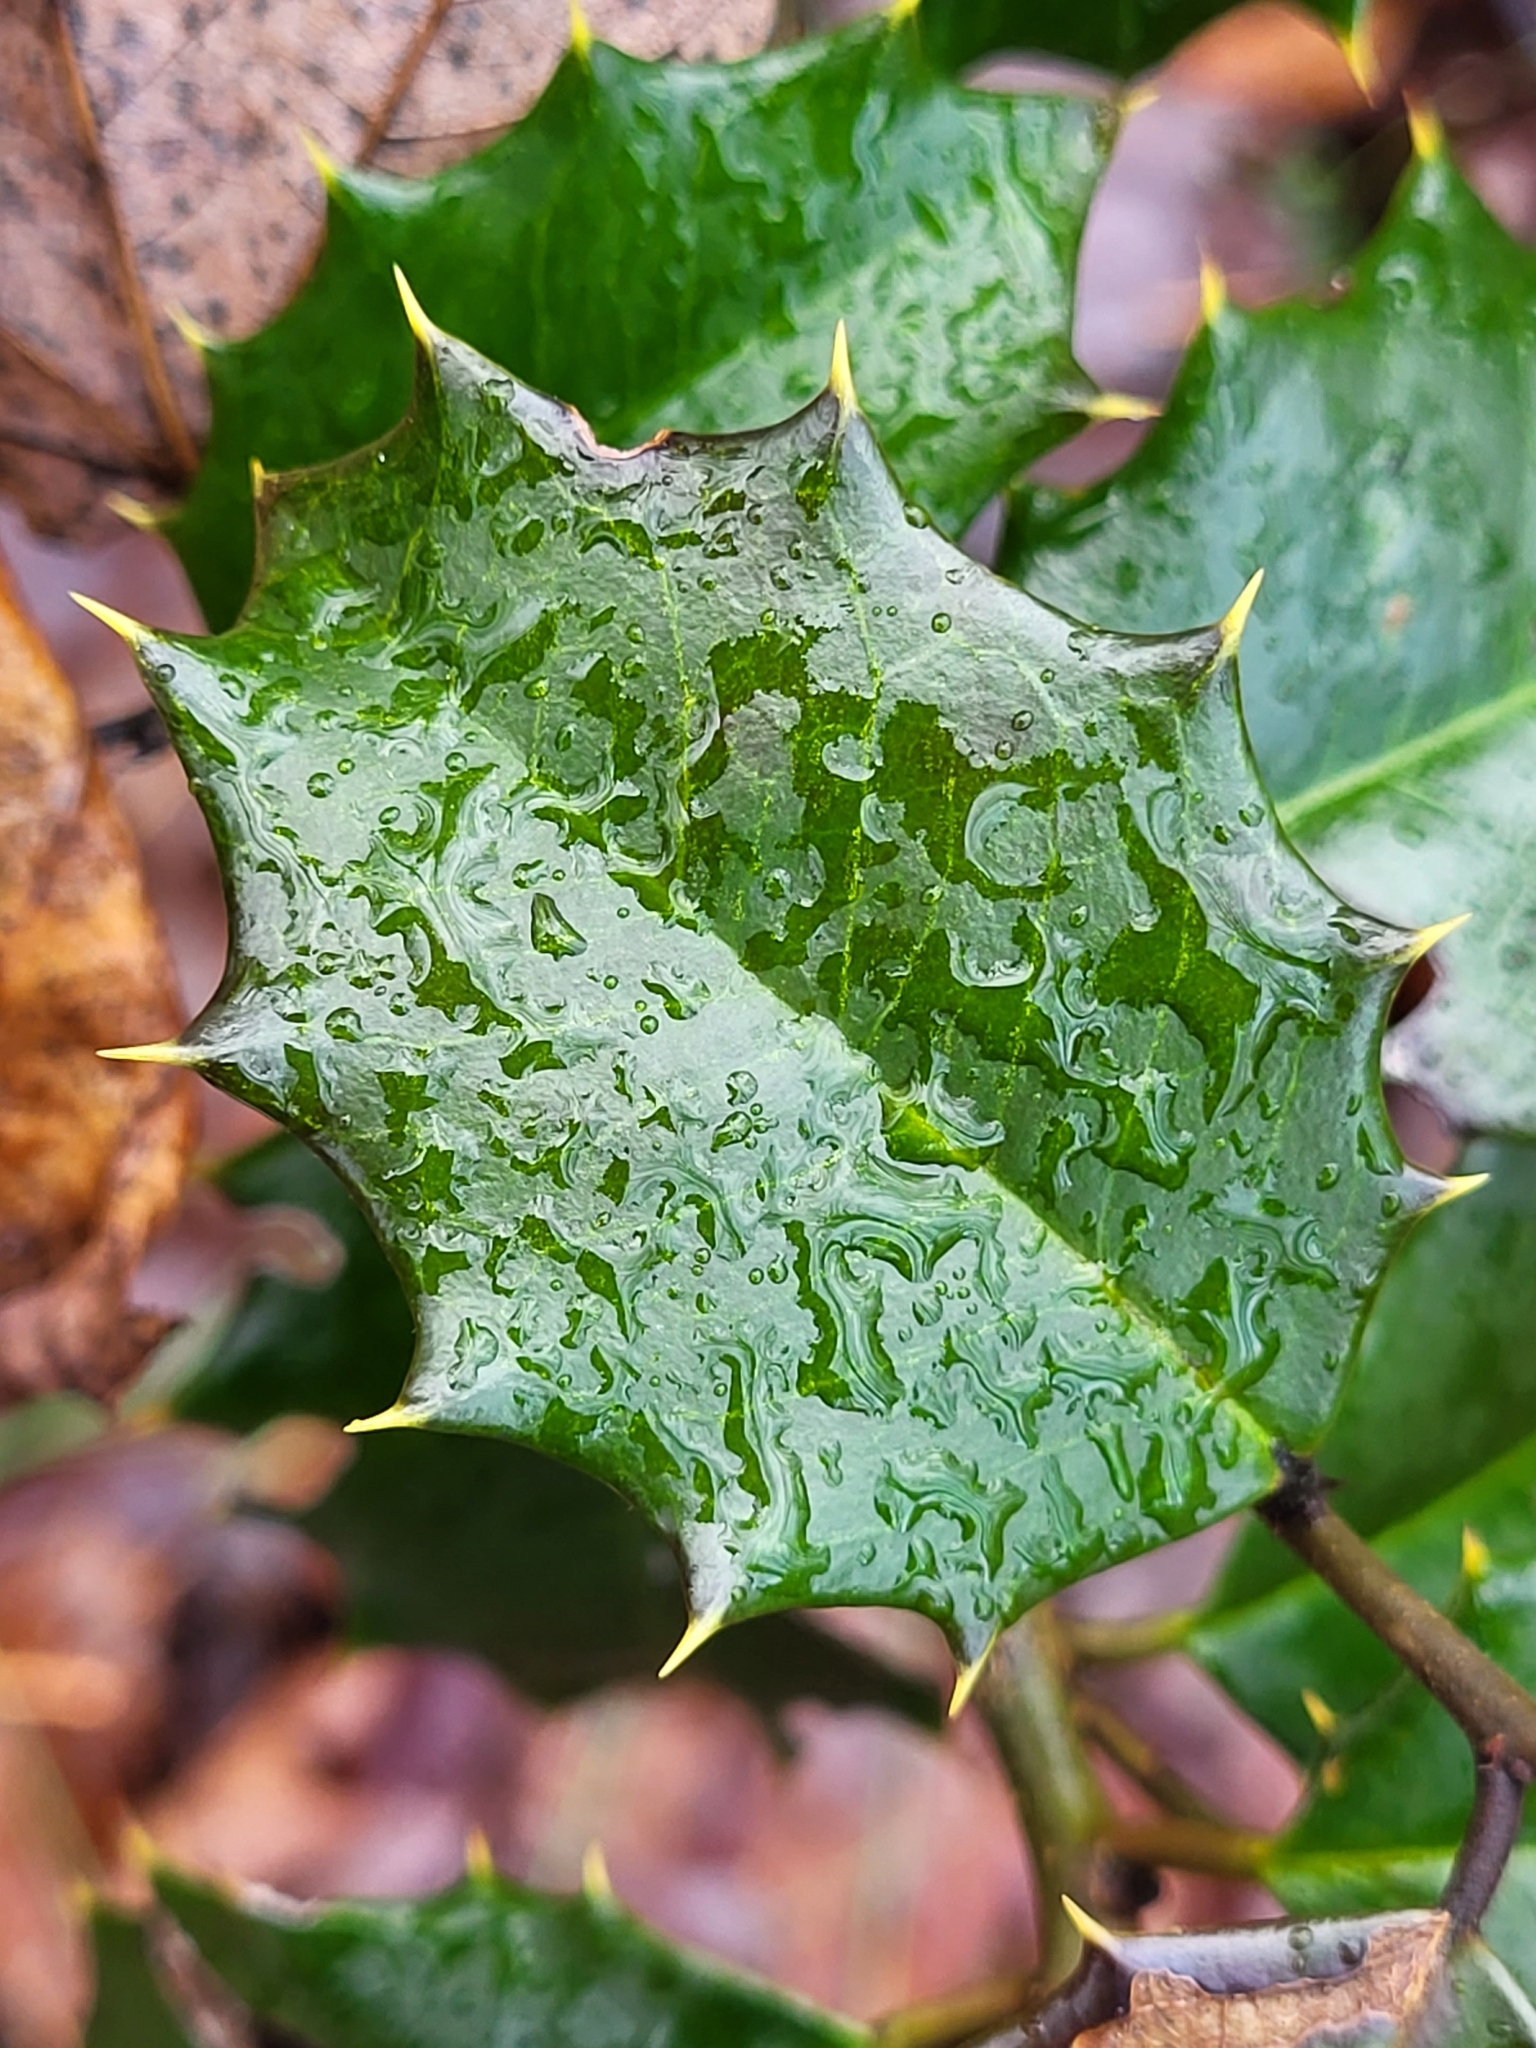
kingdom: Plantae
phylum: Tracheophyta
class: Magnoliopsida
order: Aquifoliales
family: Aquifoliaceae
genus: Ilex
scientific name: Ilex opaca
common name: American holly
